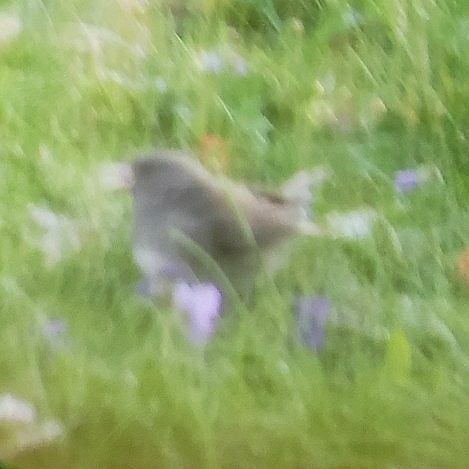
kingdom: Animalia
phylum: Chordata
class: Aves
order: Passeriformes
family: Passerellidae
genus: Junco
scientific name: Junco hyemalis
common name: Dark-eyed junco
